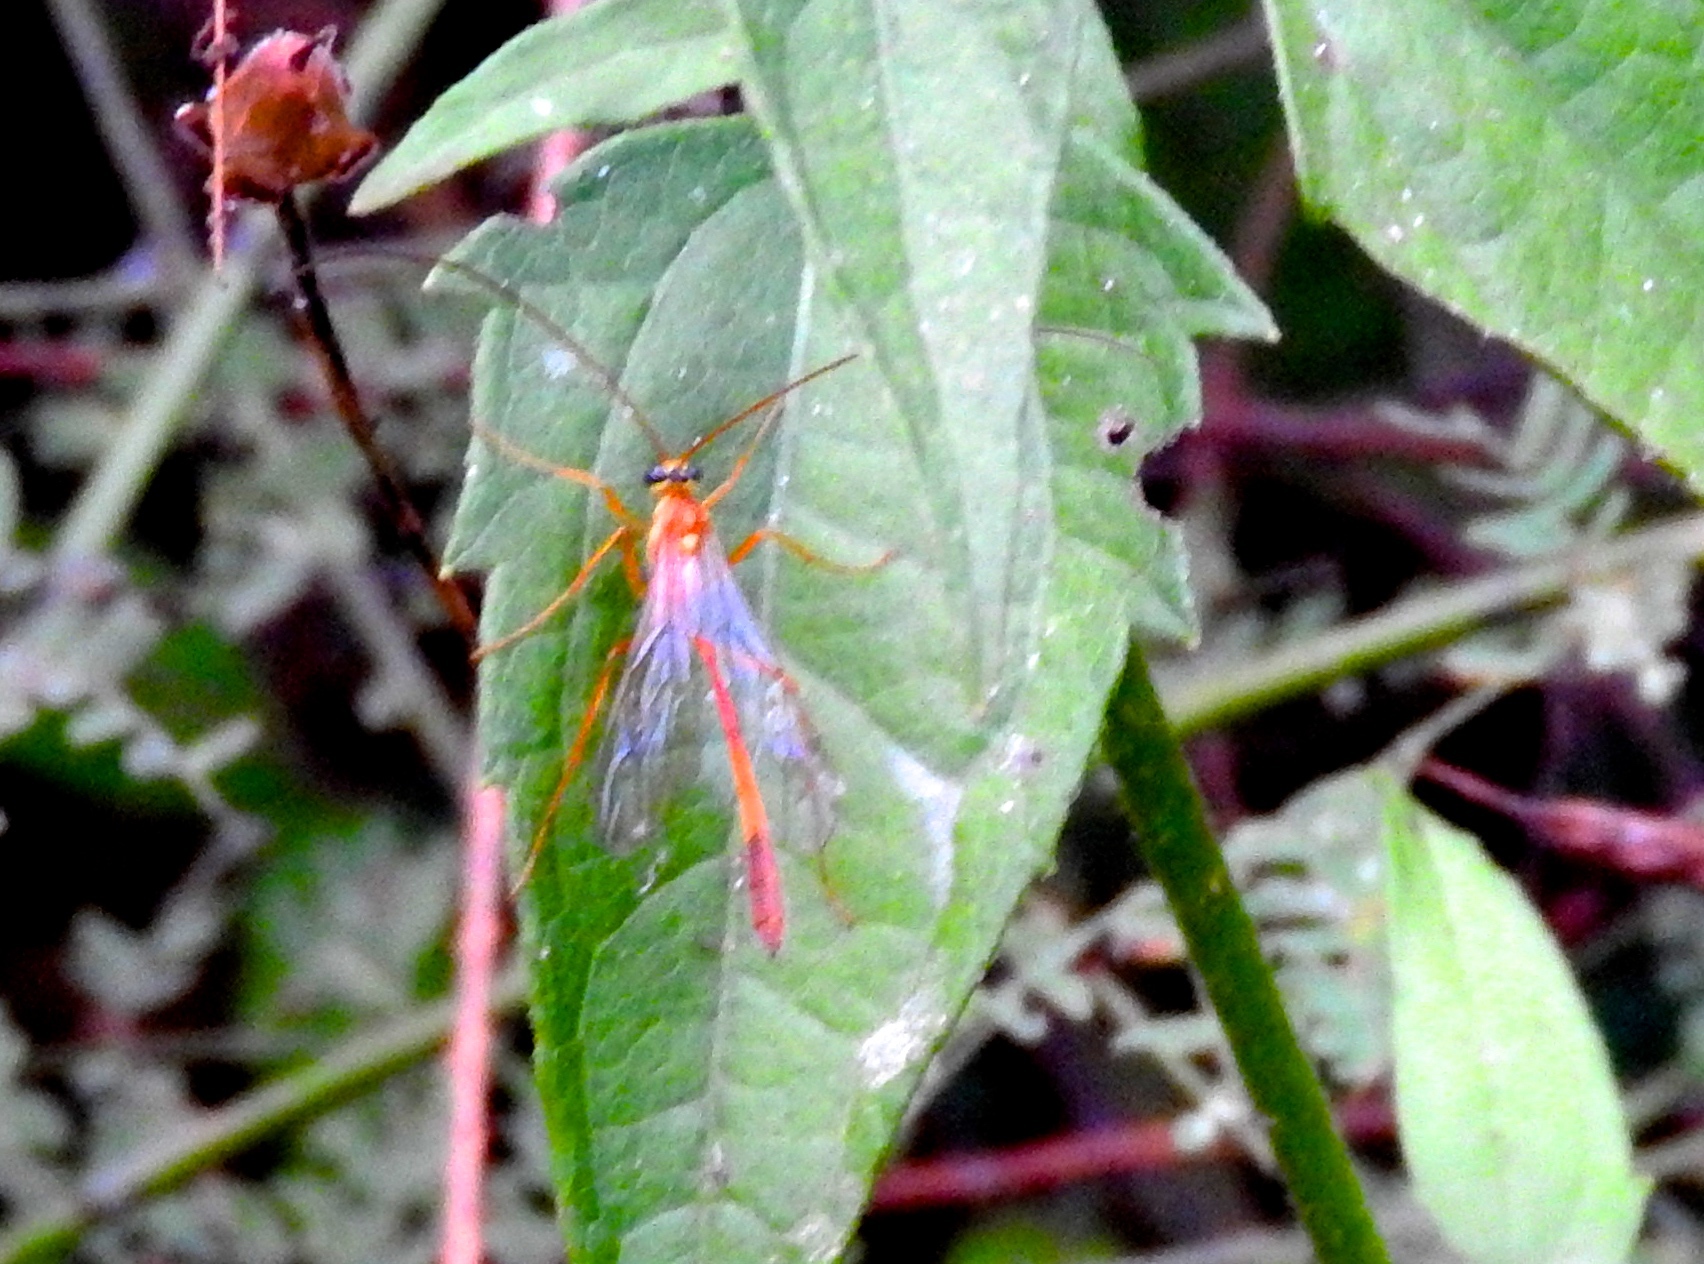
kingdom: Animalia
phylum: Arthropoda
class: Insecta
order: Hymenoptera
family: Ichneumonidae
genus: Enicospilus
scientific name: Enicospilus
